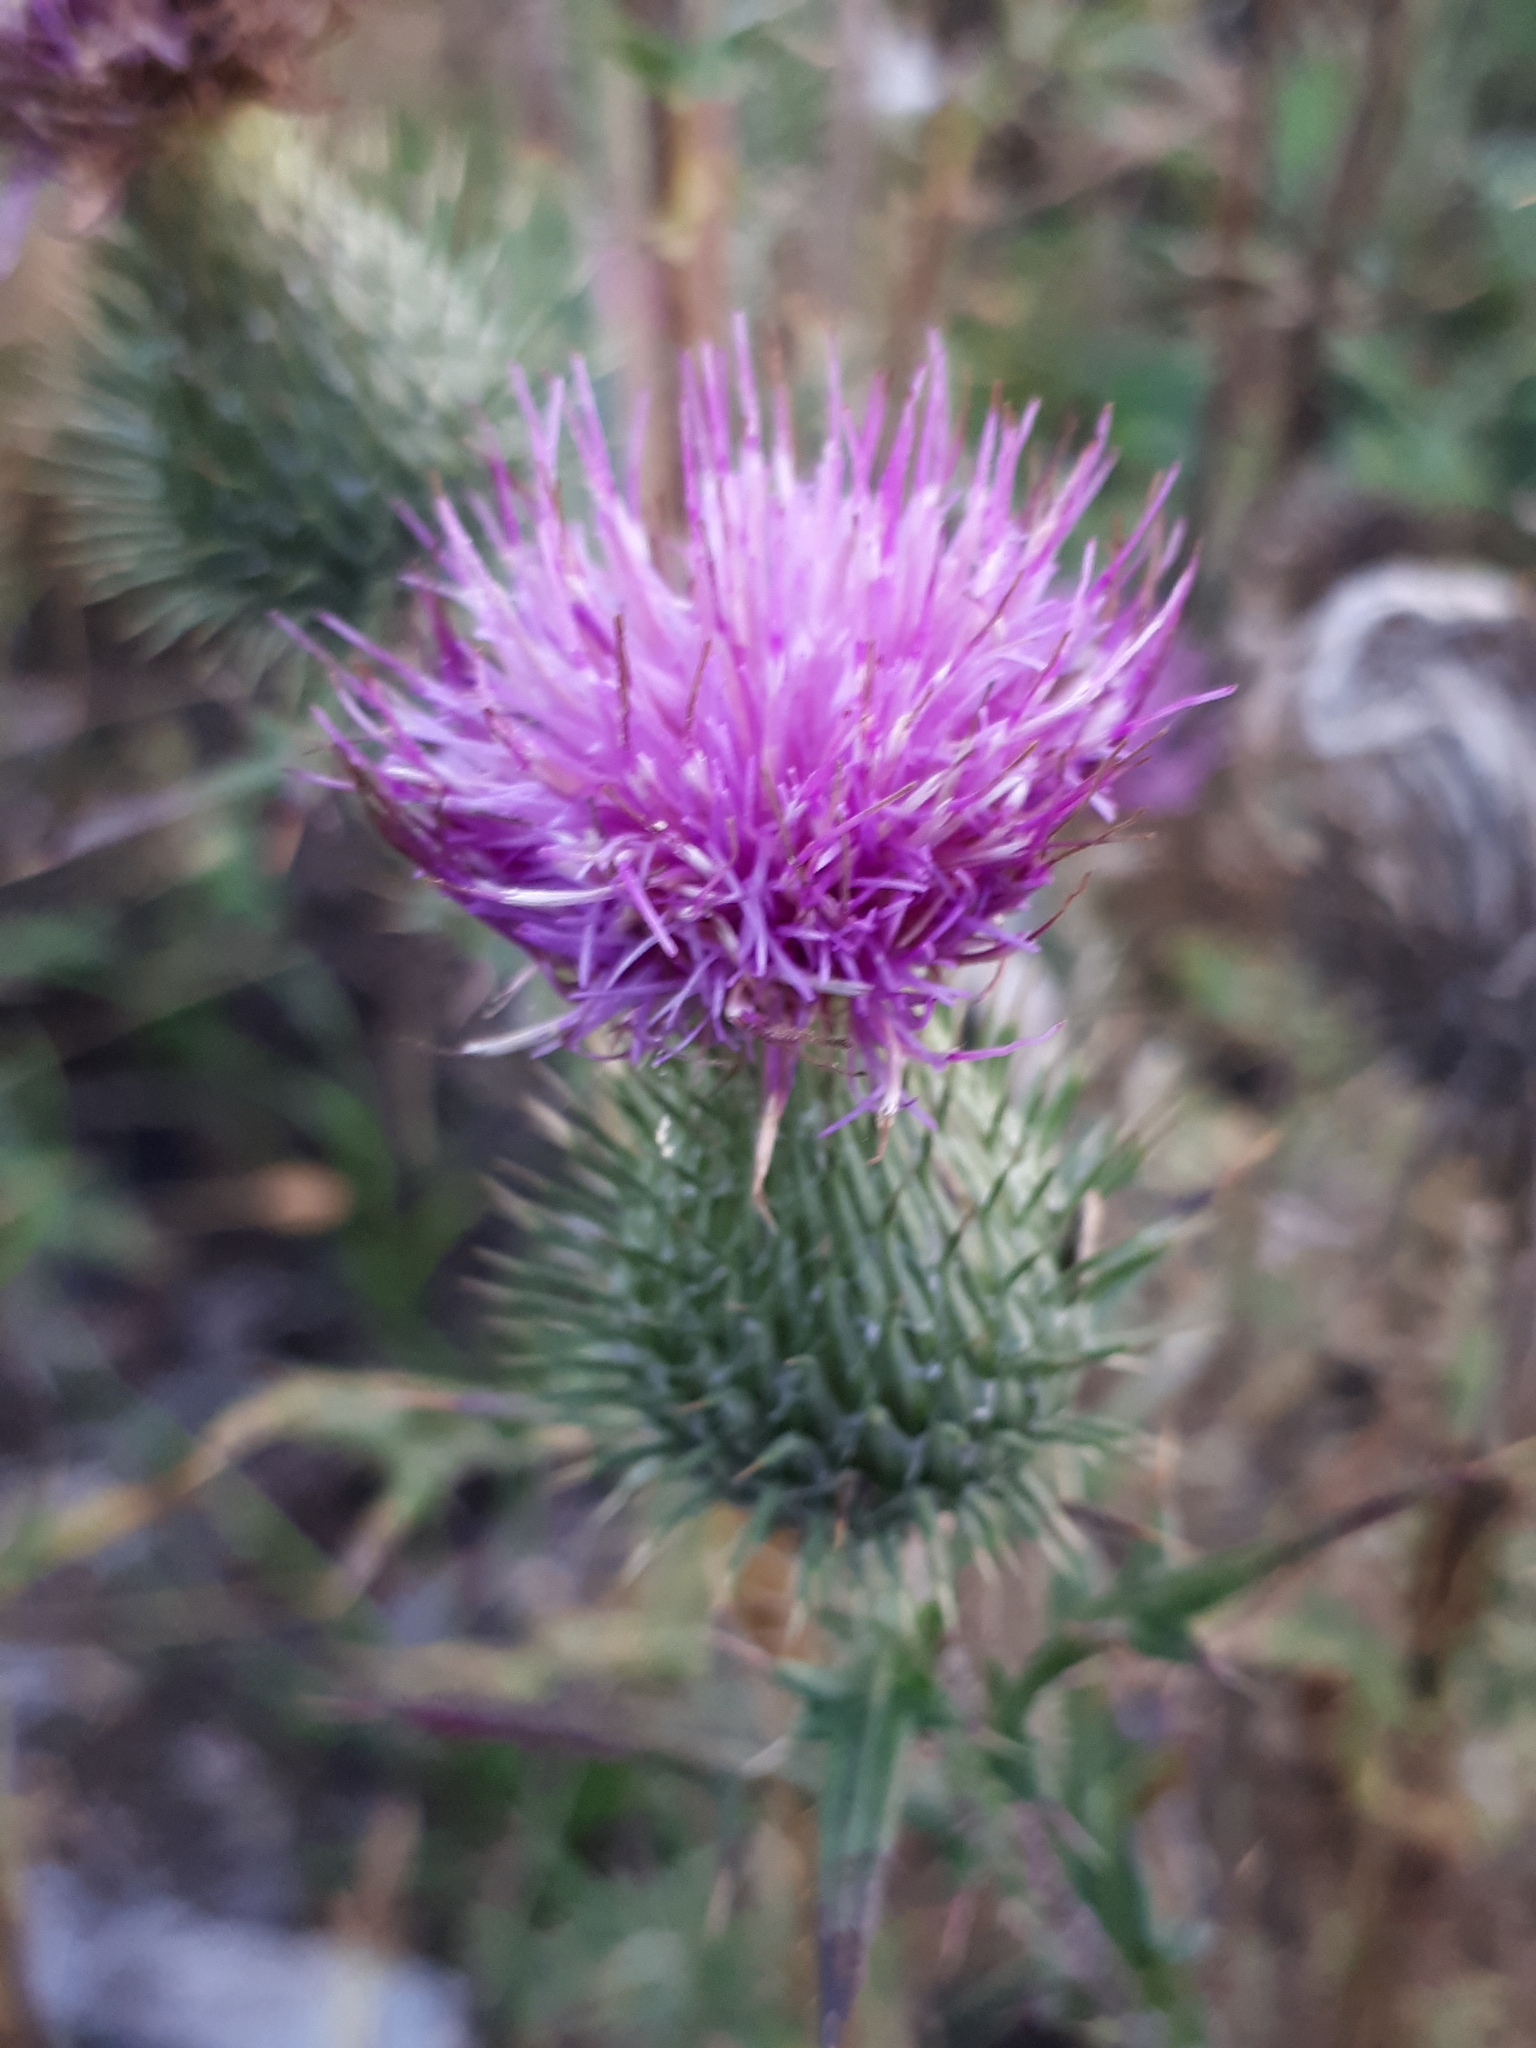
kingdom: Plantae
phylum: Tracheophyta
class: Magnoliopsida
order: Asterales
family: Asteraceae
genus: Cirsium
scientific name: Cirsium vulgare
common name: Bull thistle
